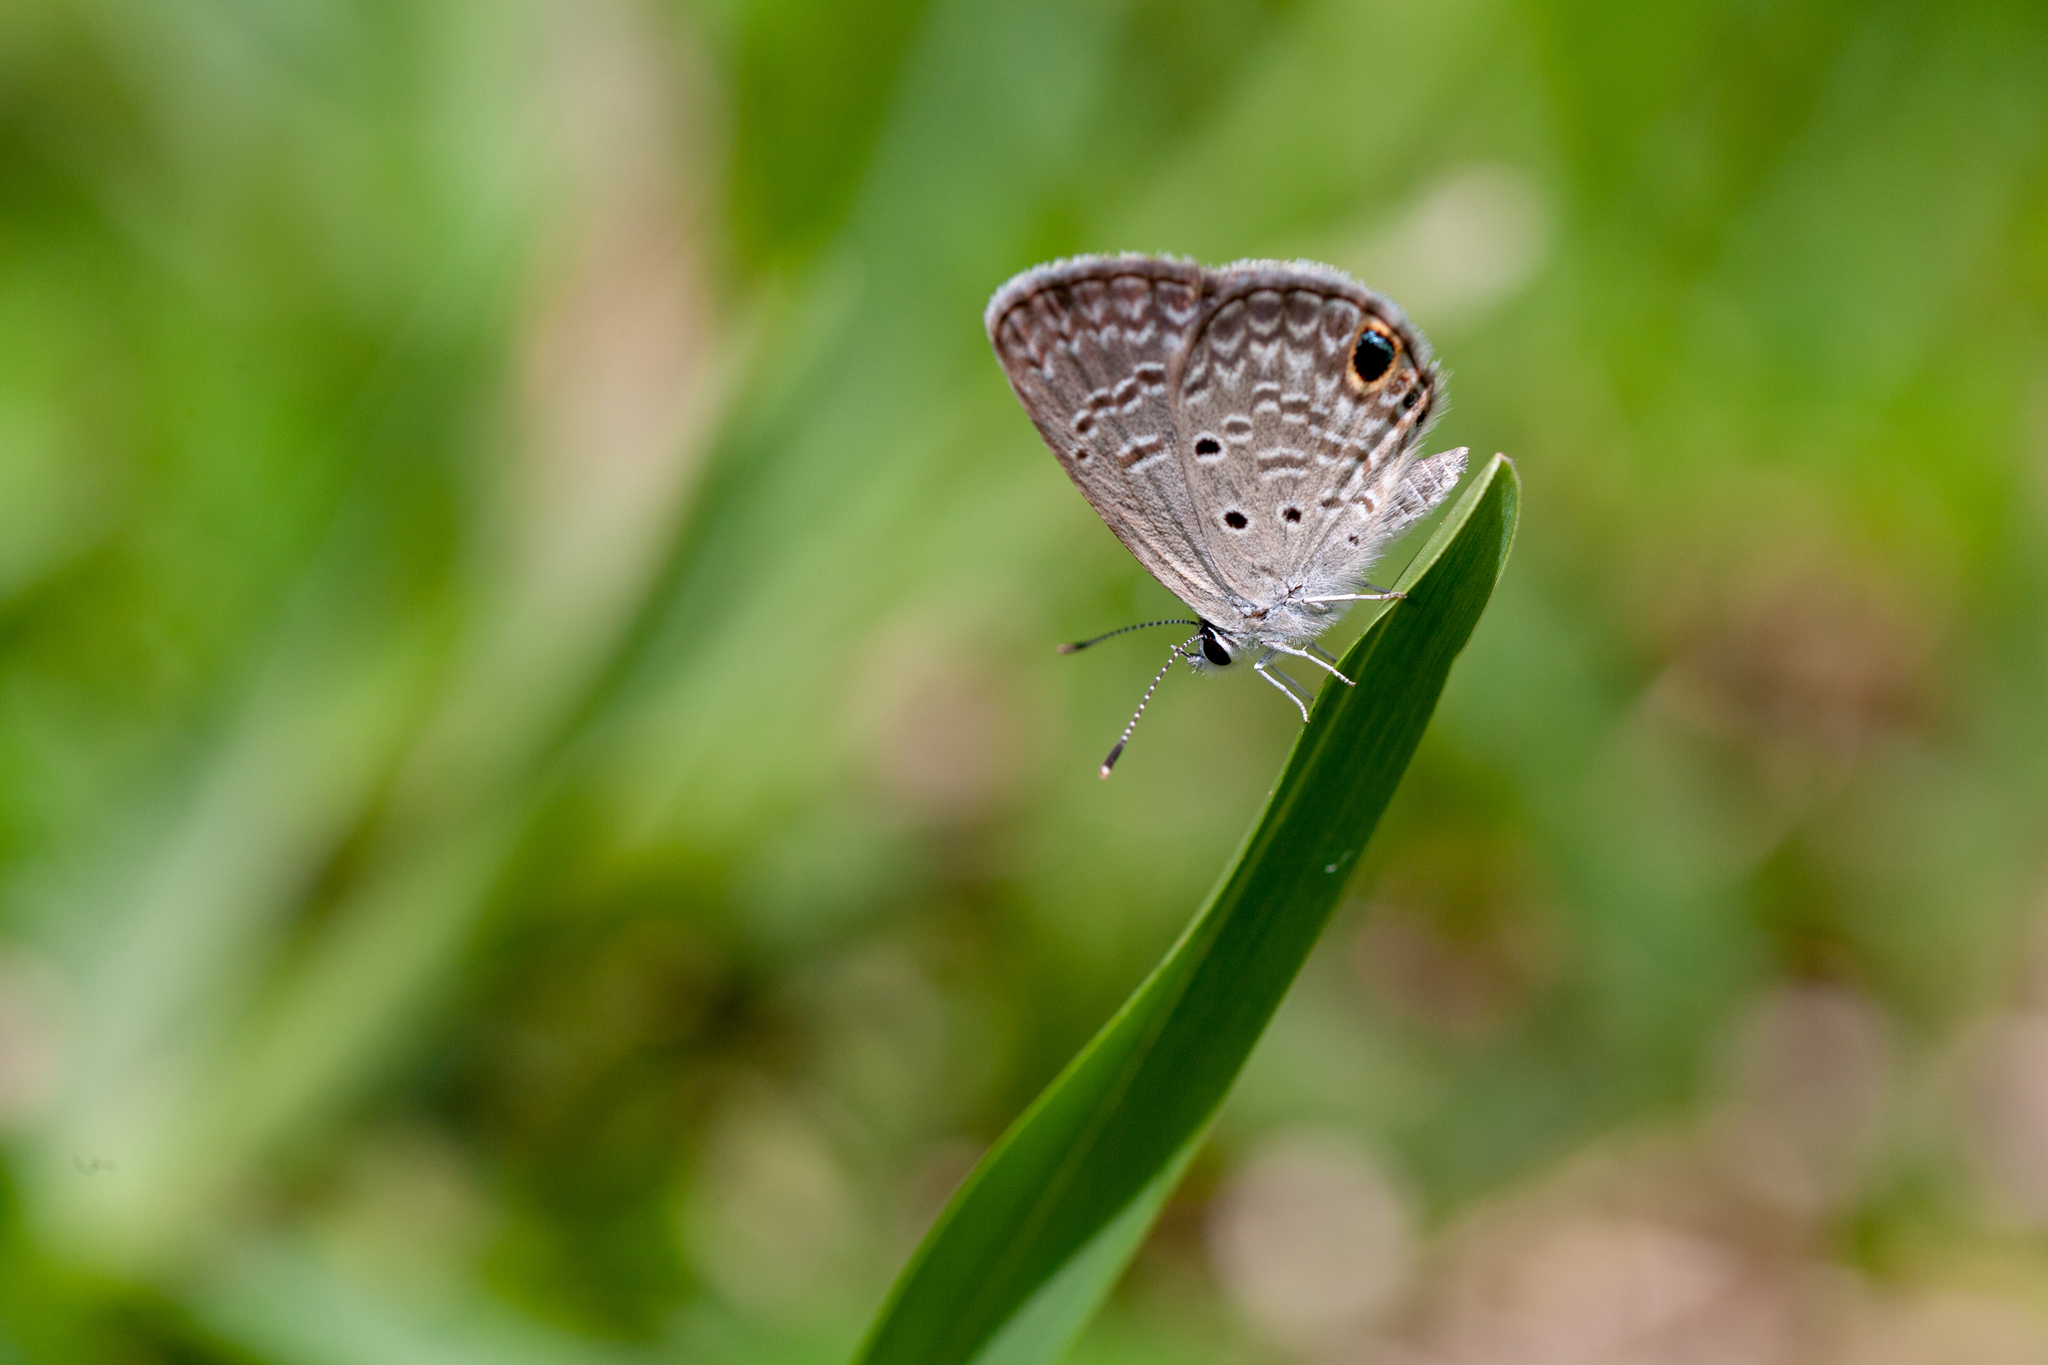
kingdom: Animalia
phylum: Arthropoda
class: Insecta
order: Lepidoptera
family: Lycaenidae
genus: Hemiargus
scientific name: Hemiargus ceraunus
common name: Ceraunus blue
